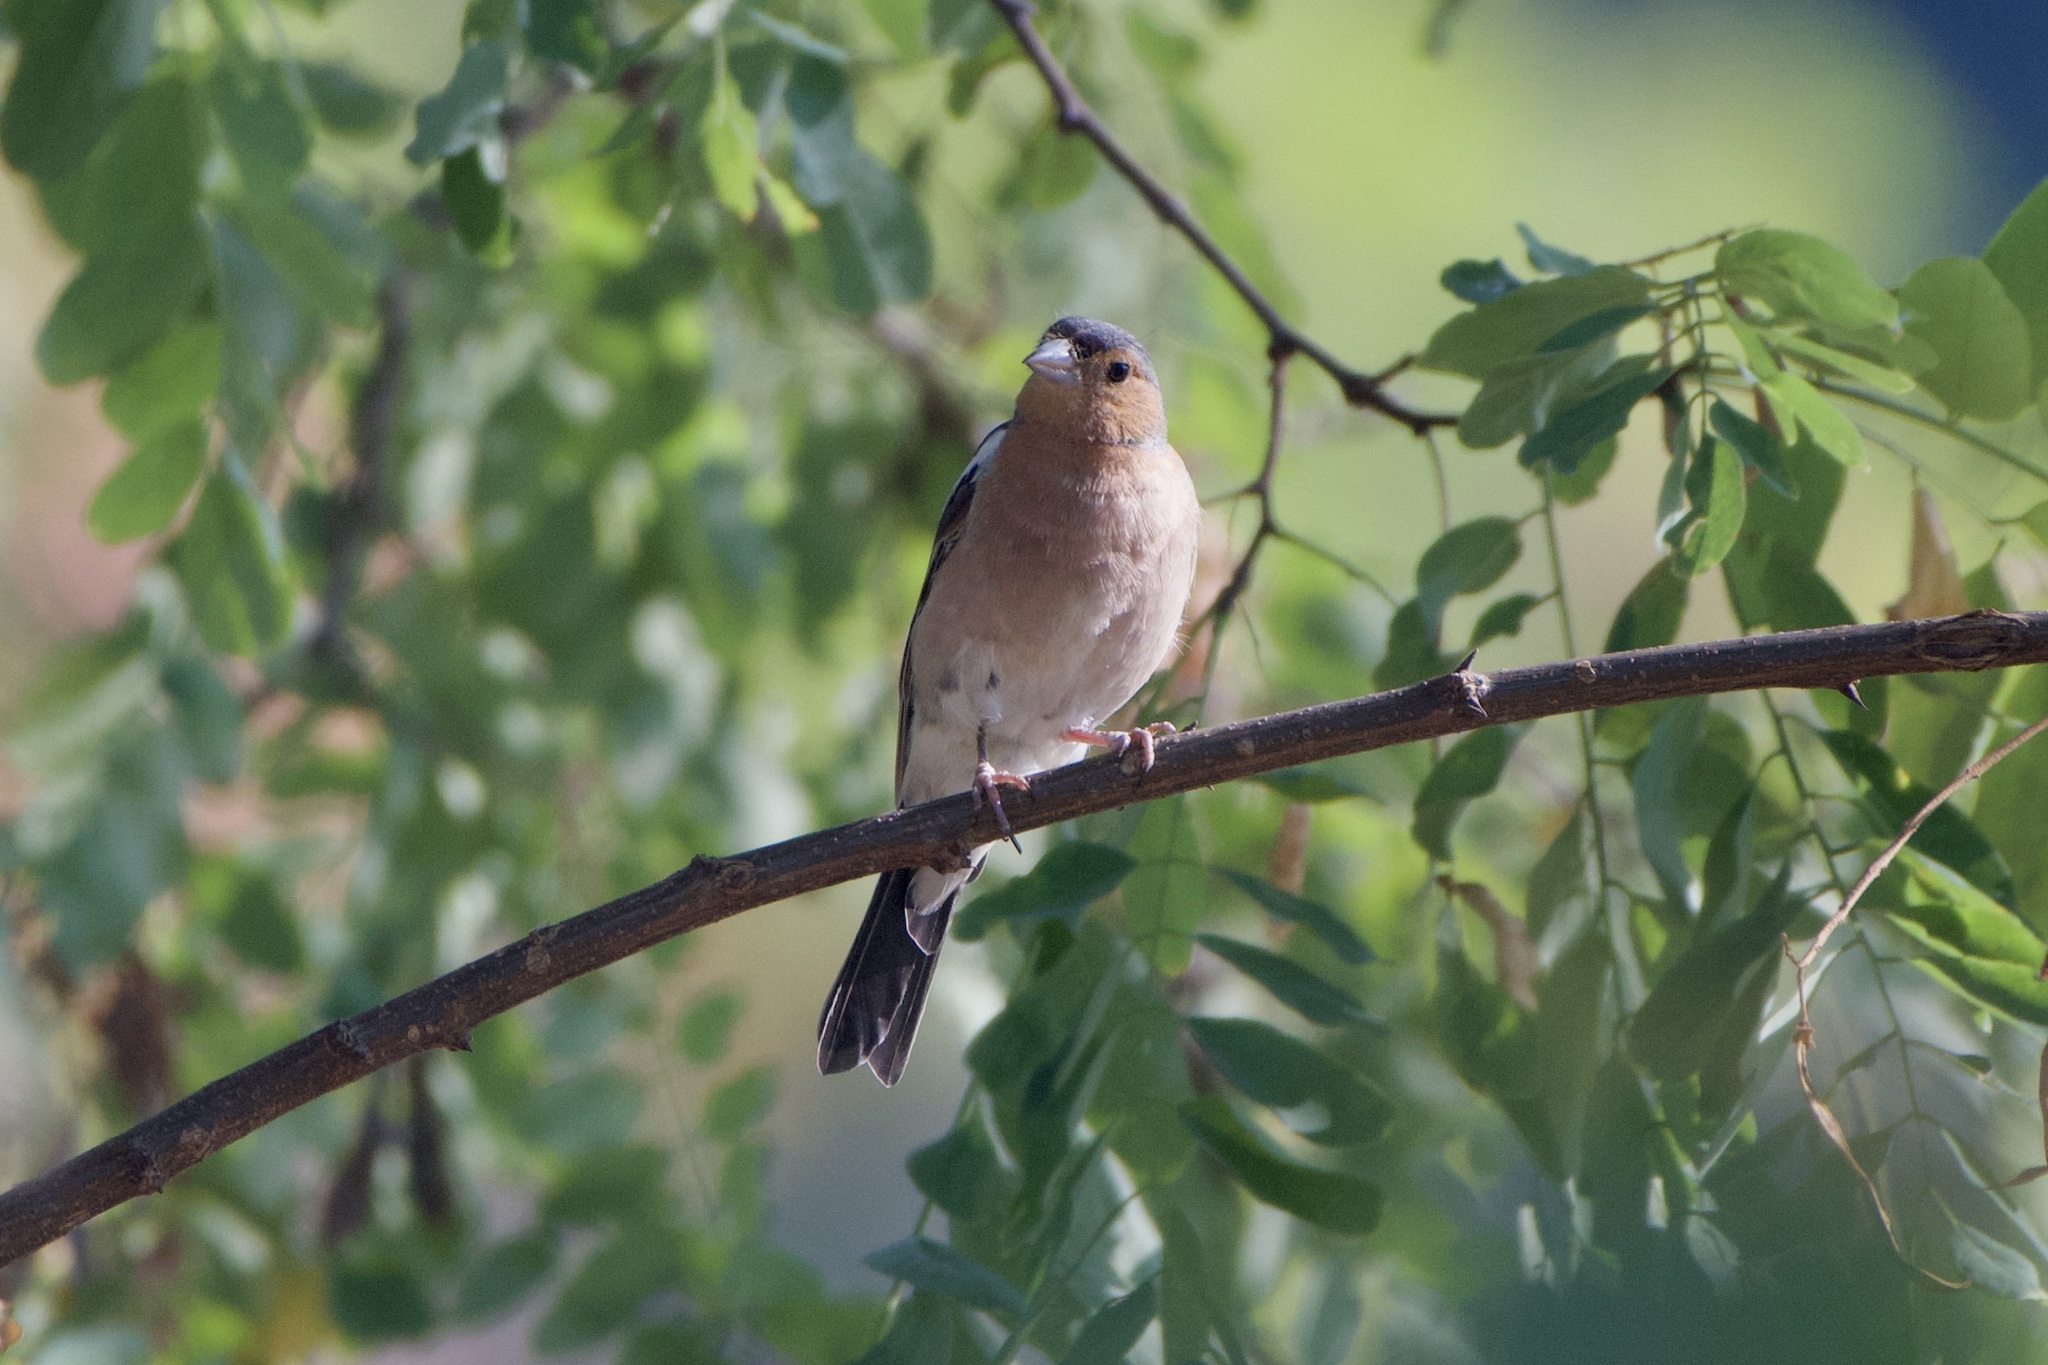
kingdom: Animalia
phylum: Chordata
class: Aves
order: Passeriformes
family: Fringillidae
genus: Fringilla
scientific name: Fringilla coelebs
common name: Common chaffinch
